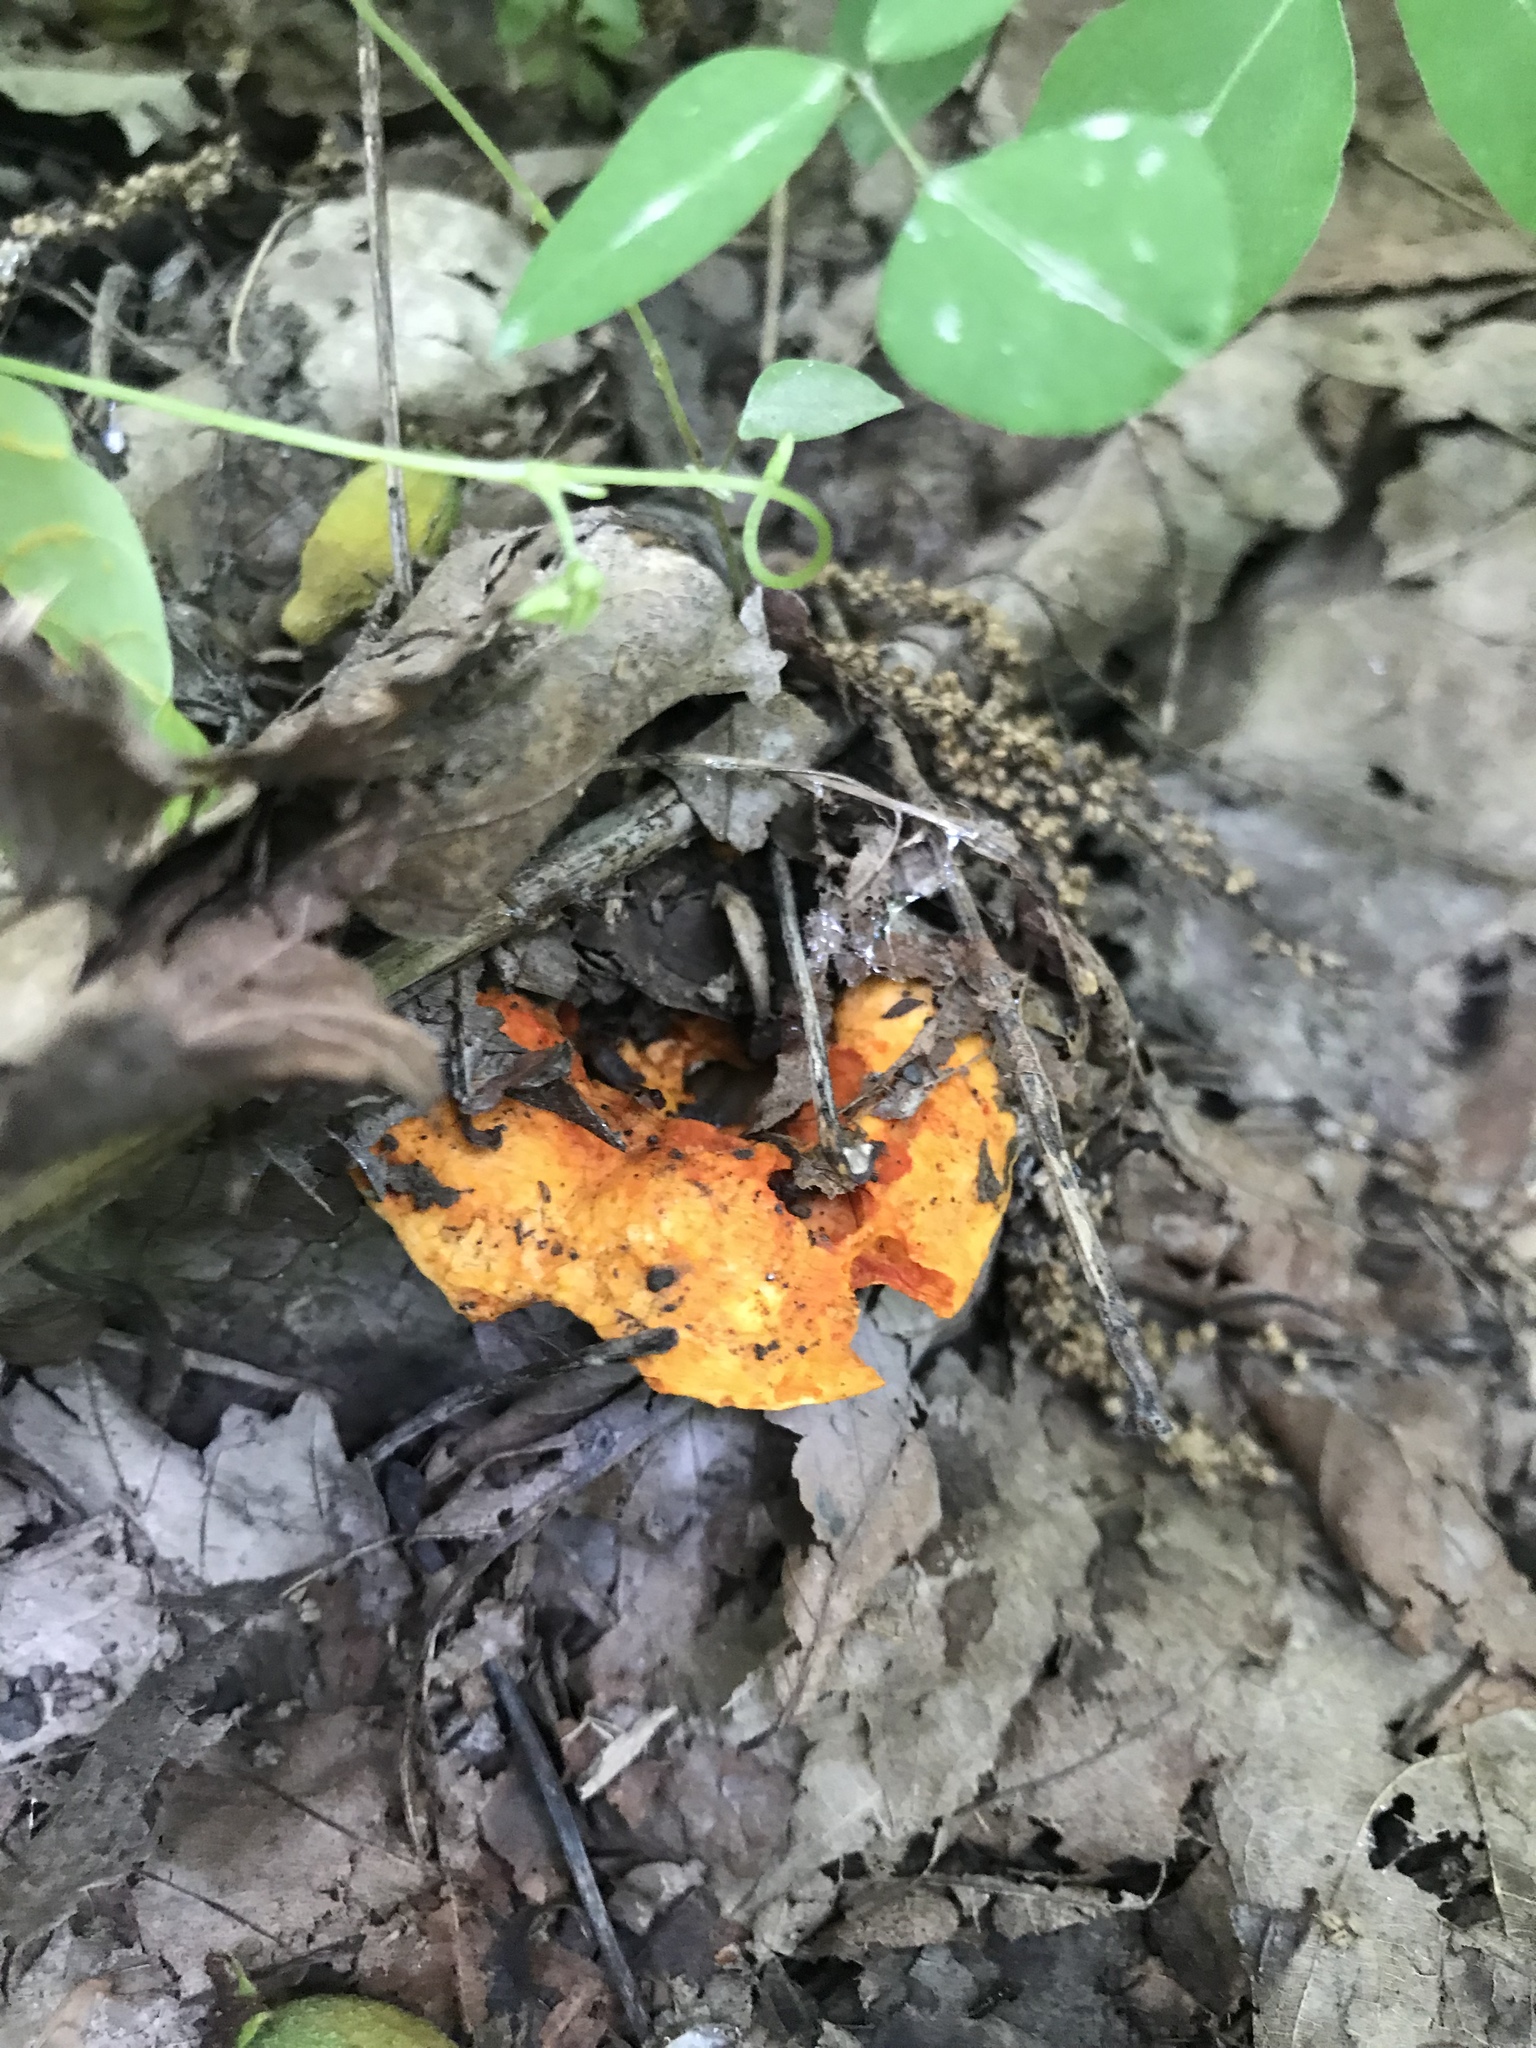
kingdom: Fungi
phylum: Ascomycota
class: Sordariomycetes
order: Hypocreales
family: Hypocreaceae
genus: Hypomyces
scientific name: Hypomyces lactifluorum
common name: Lobster mushroom
